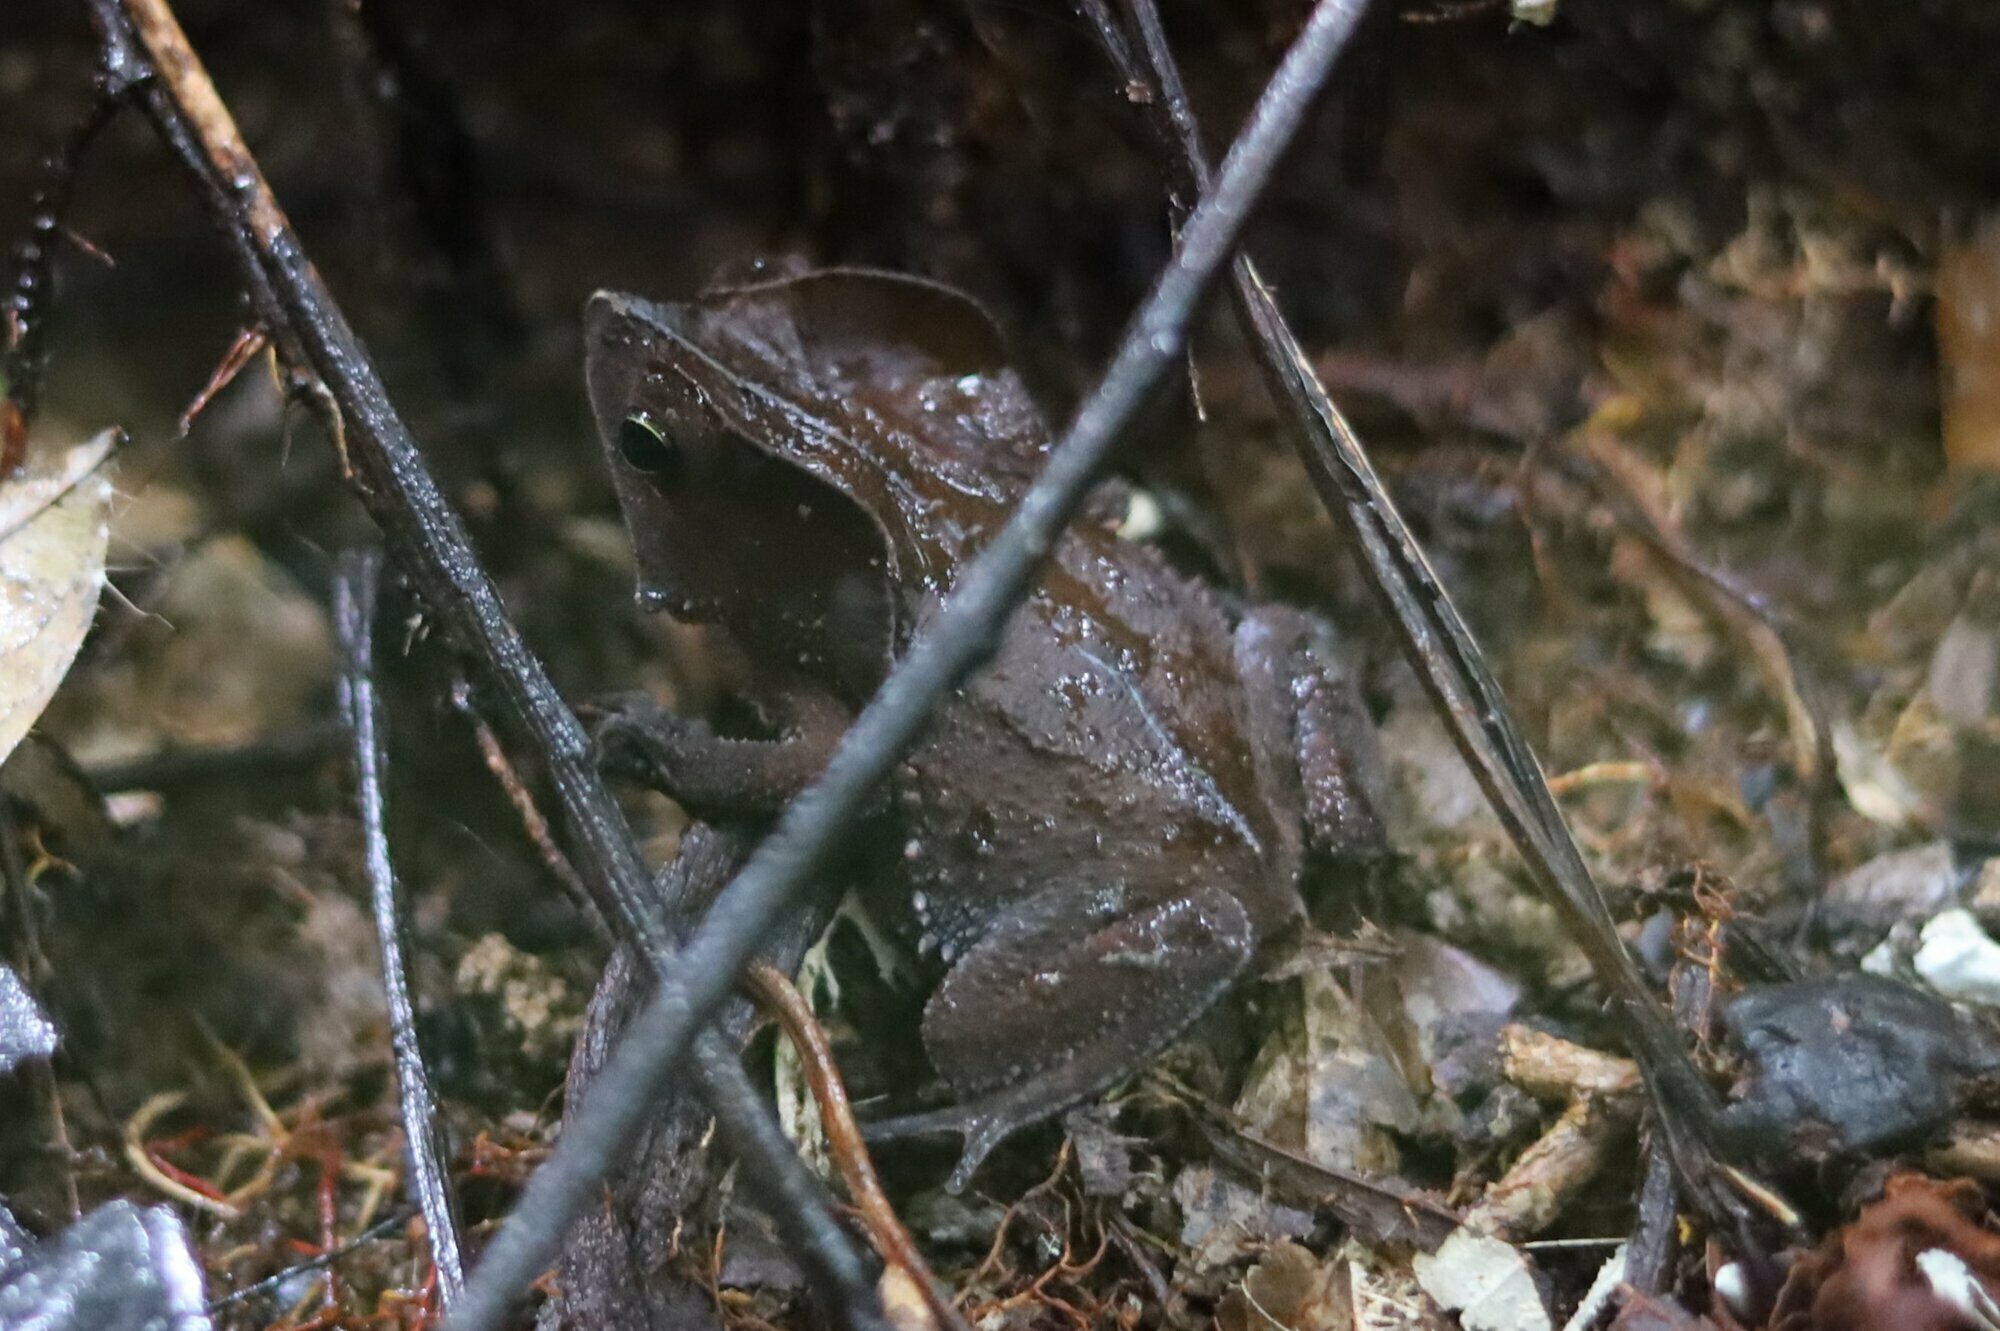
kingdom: Animalia
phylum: Chordata
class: Amphibia
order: Anura
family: Bufonidae
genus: Rhinella
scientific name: Rhinella margaritifera
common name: Mitred toad
